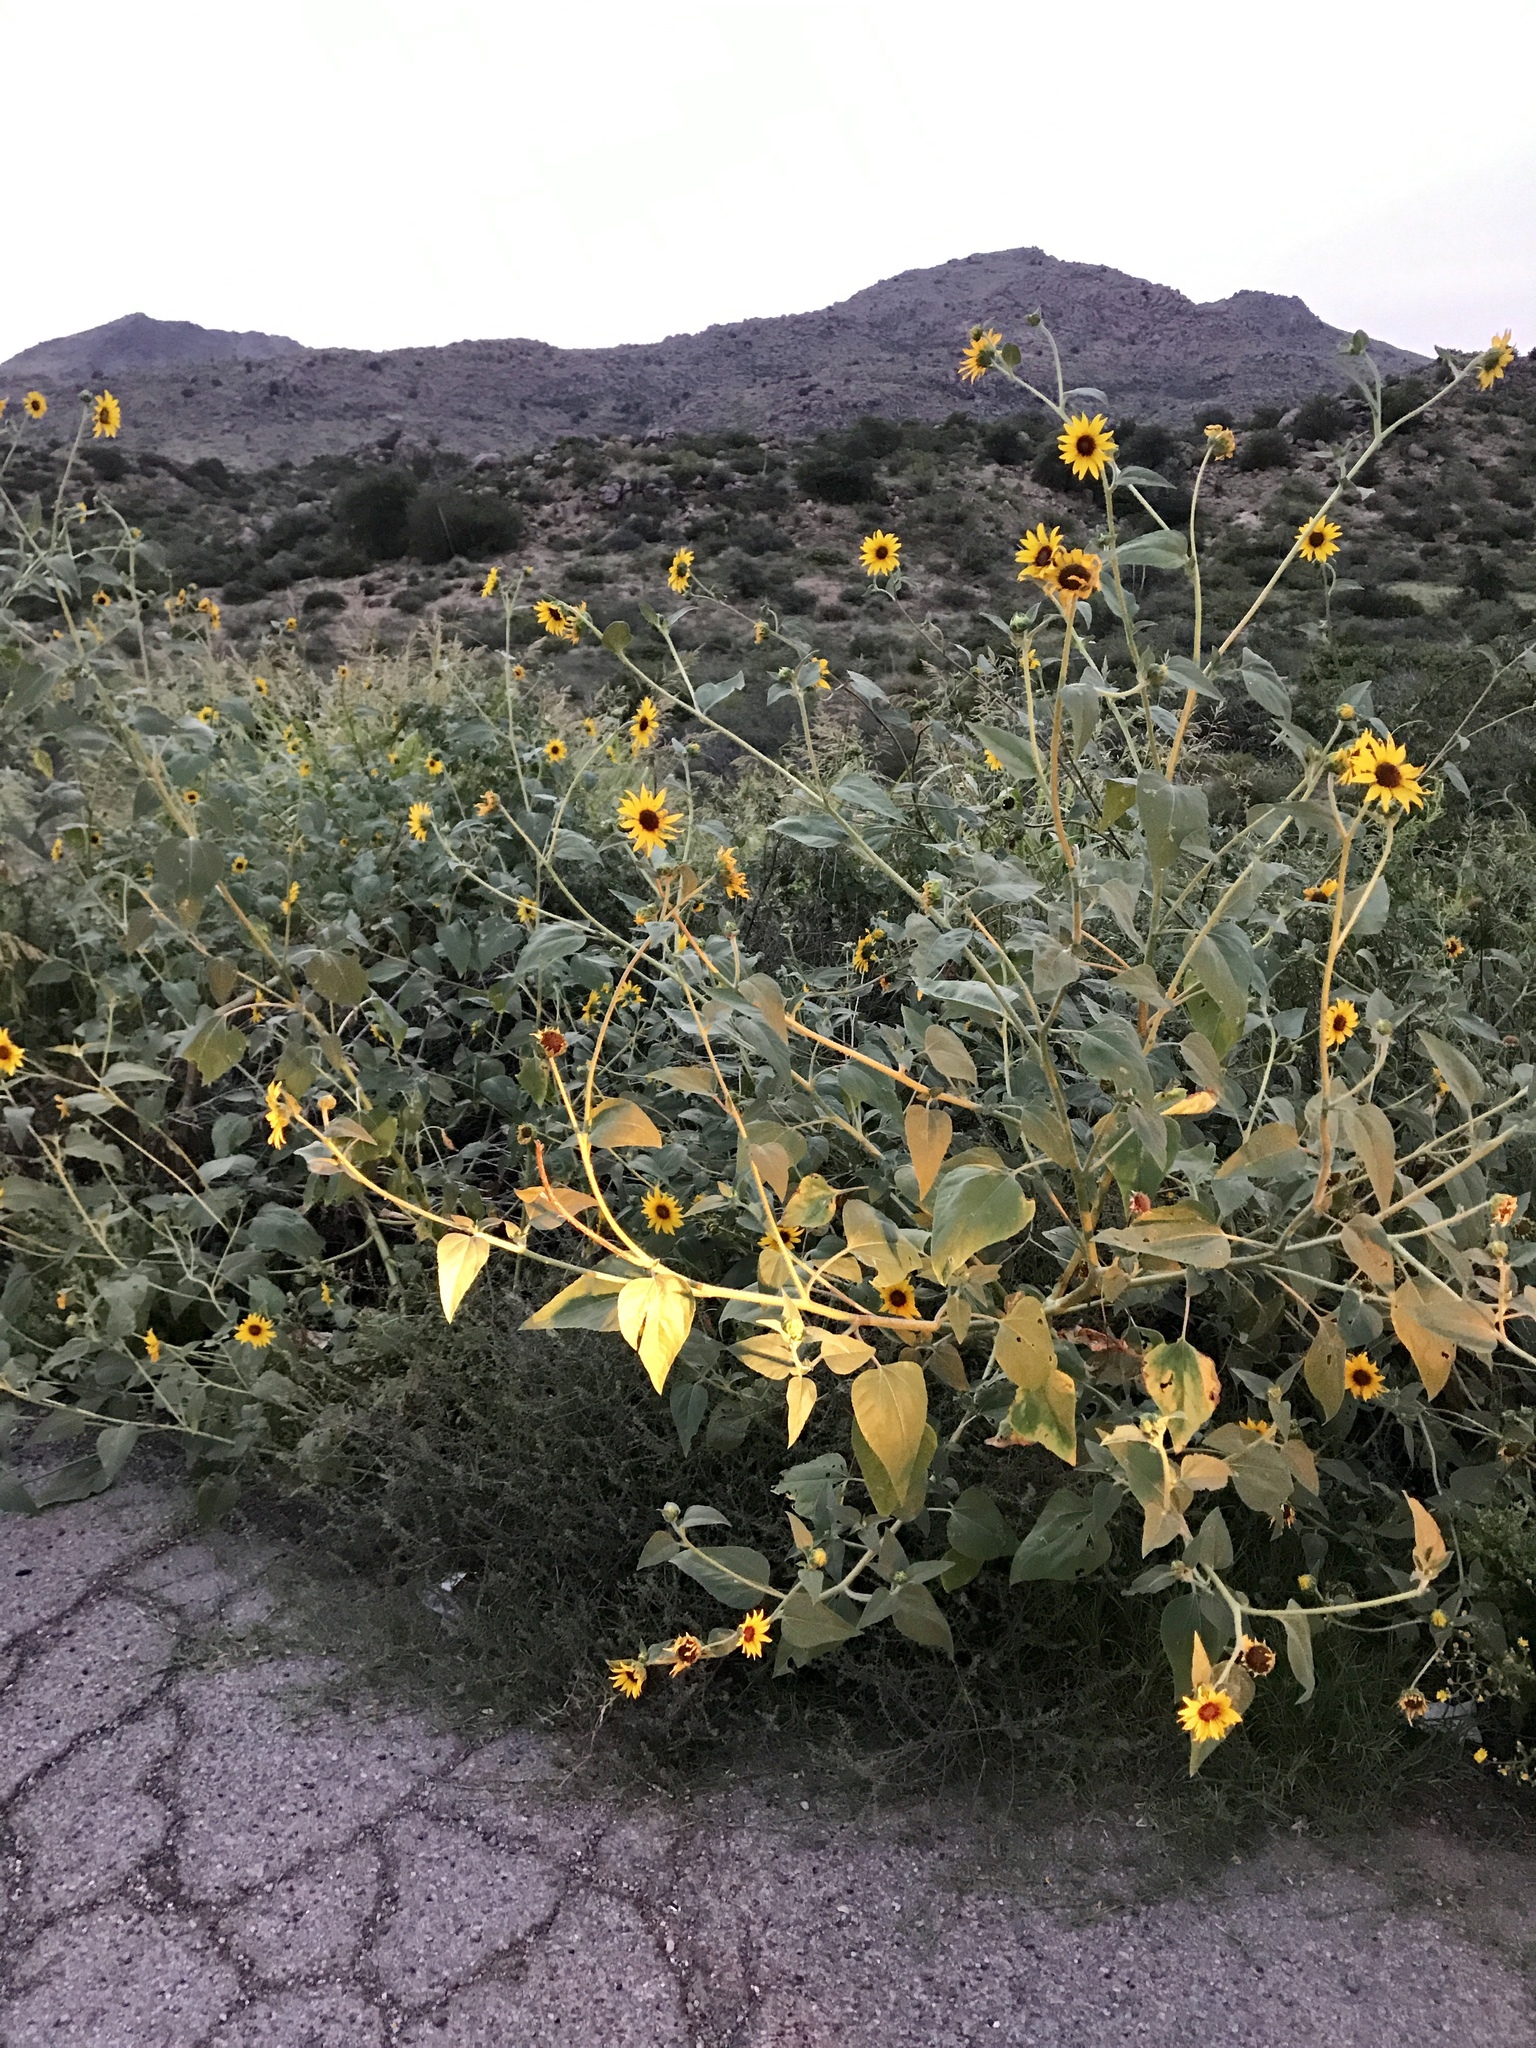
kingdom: Plantae
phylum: Tracheophyta
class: Magnoliopsida
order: Asterales
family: Asteraceae
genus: Helianthus
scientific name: Helianthus annuus
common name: Sunflower
